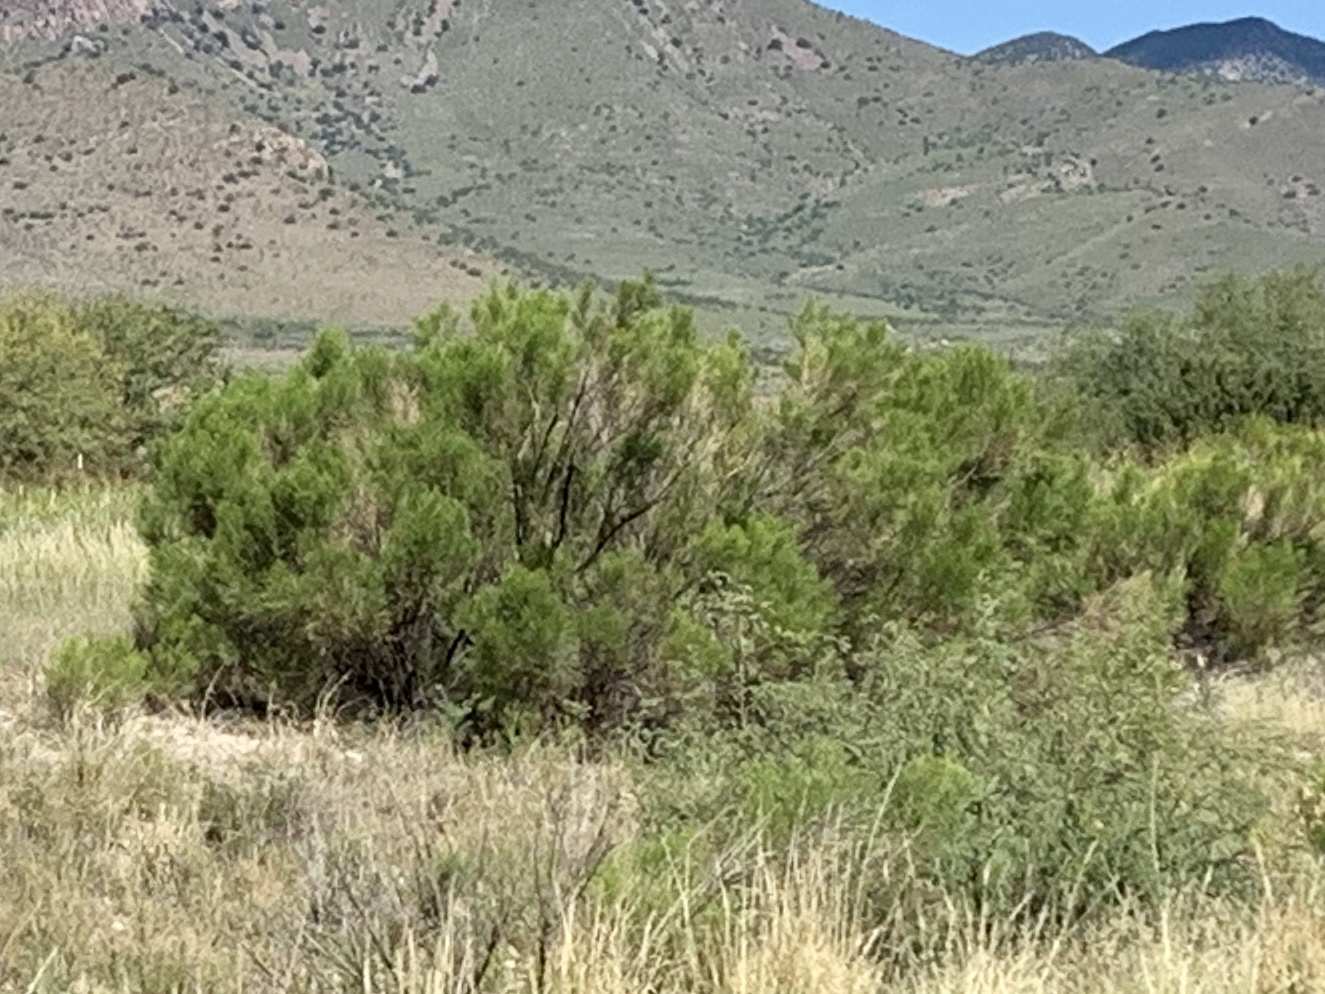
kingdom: Plantae
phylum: Tracheophyta
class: Magnoliopsida
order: Asterales
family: Asteraceae
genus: Baccharis
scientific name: Baccharis sarothroides
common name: Desert-broom
